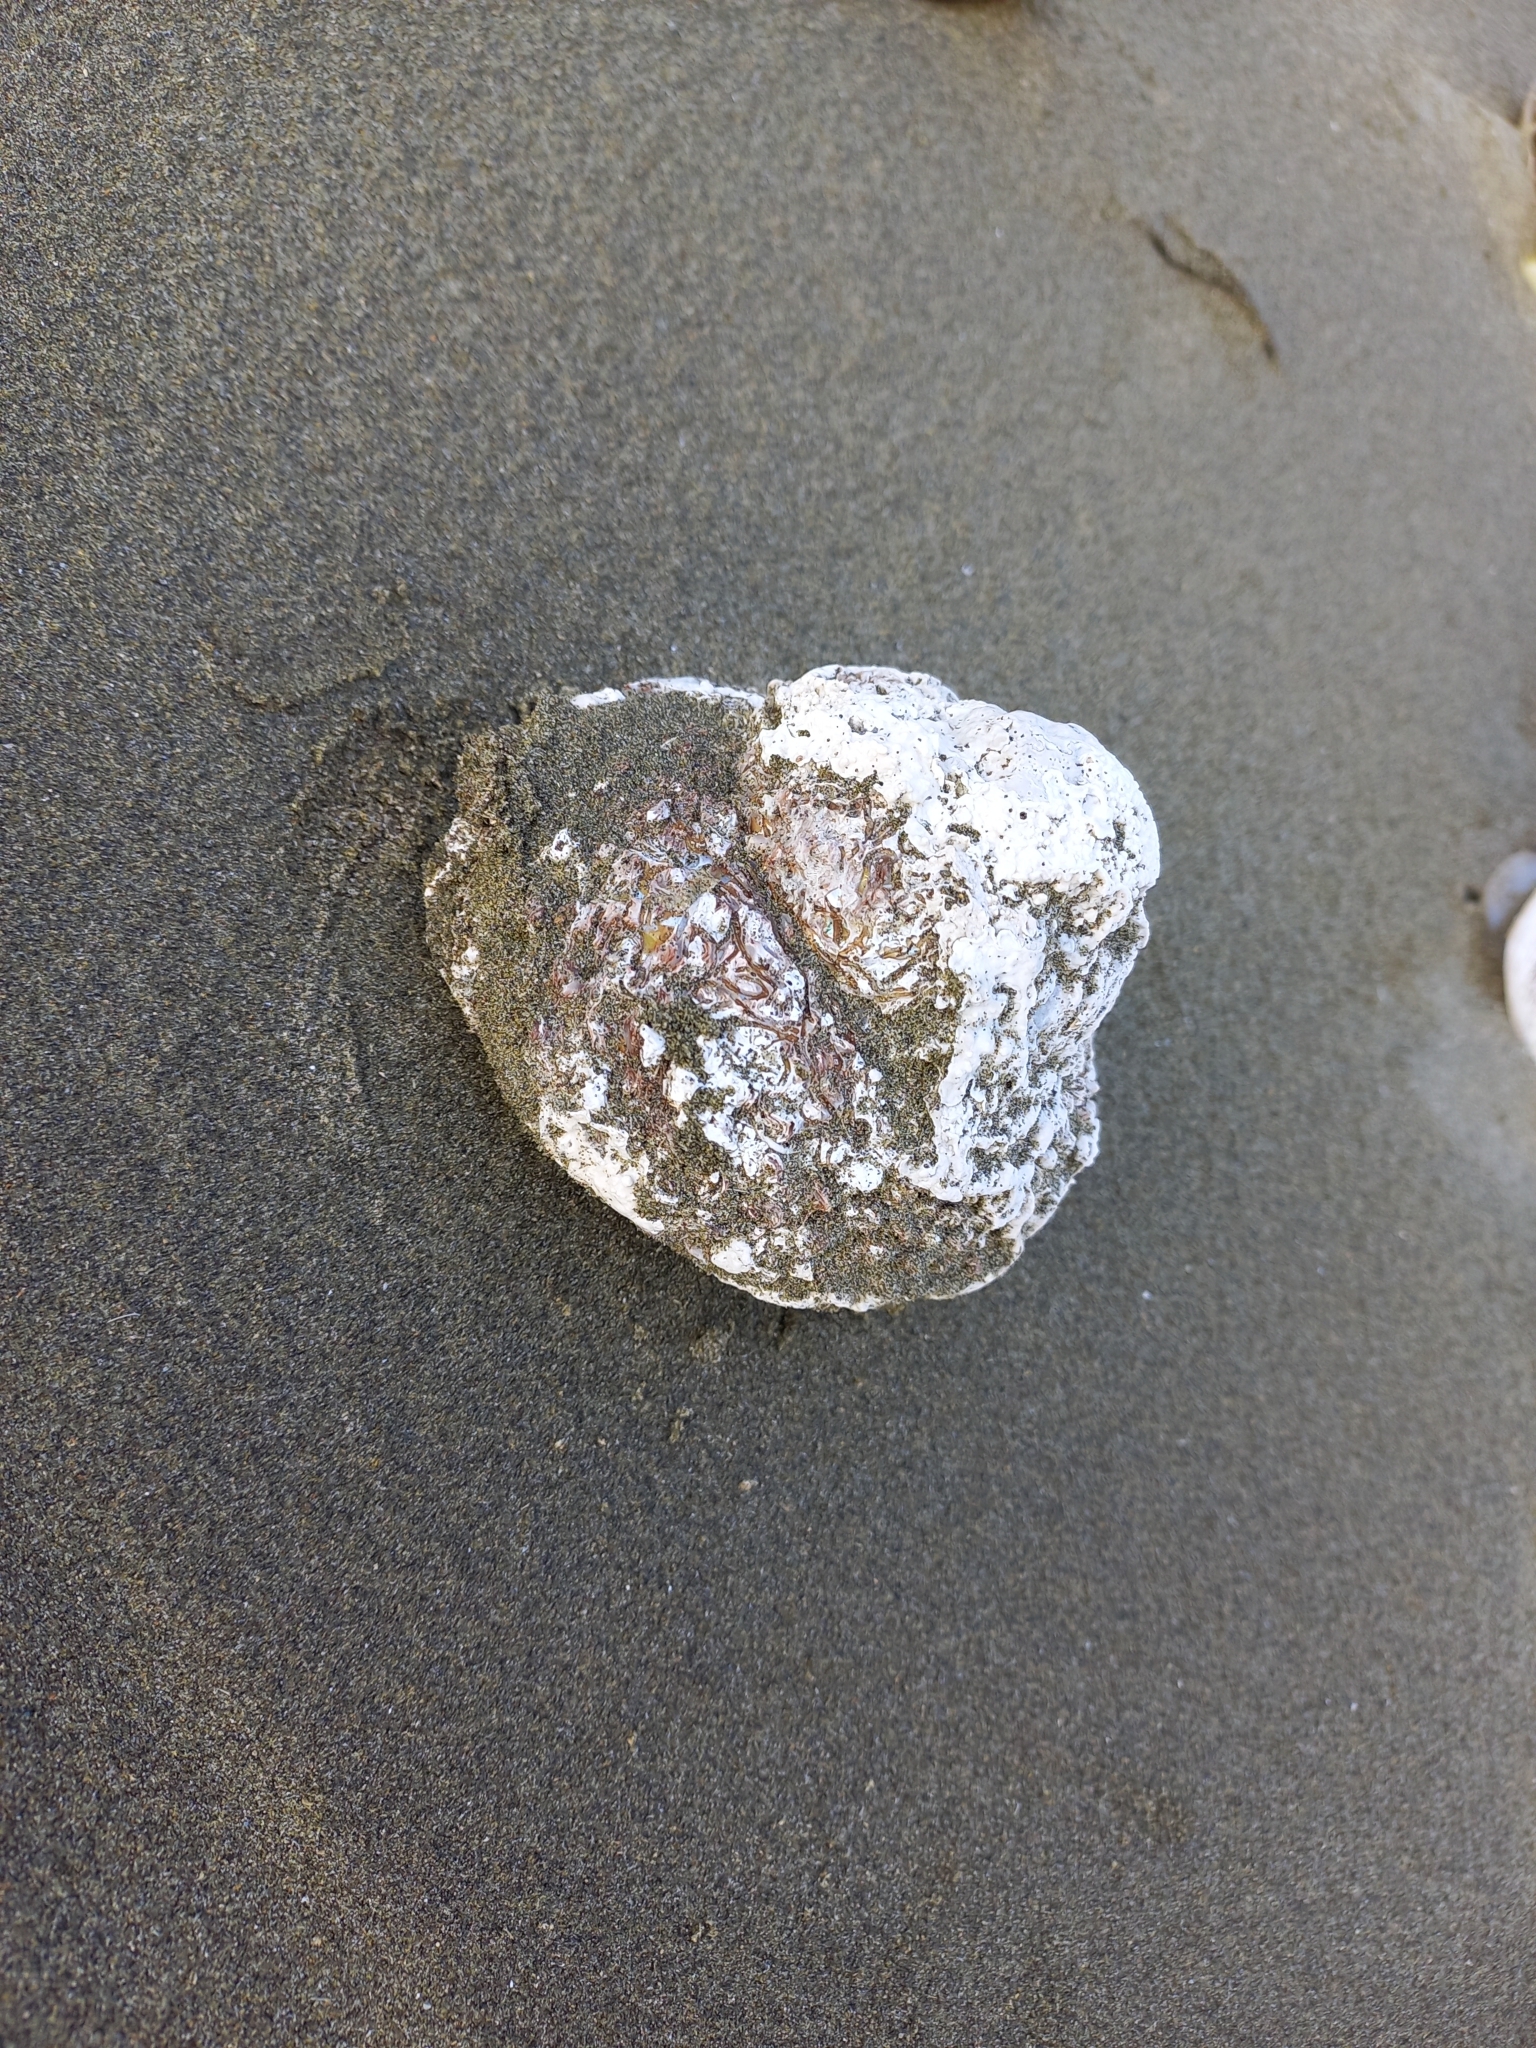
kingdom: Animalia
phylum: Mollusca
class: Gastropoda
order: Trochida
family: Turbinidae
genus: Cookia
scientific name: Cookia sulcata
